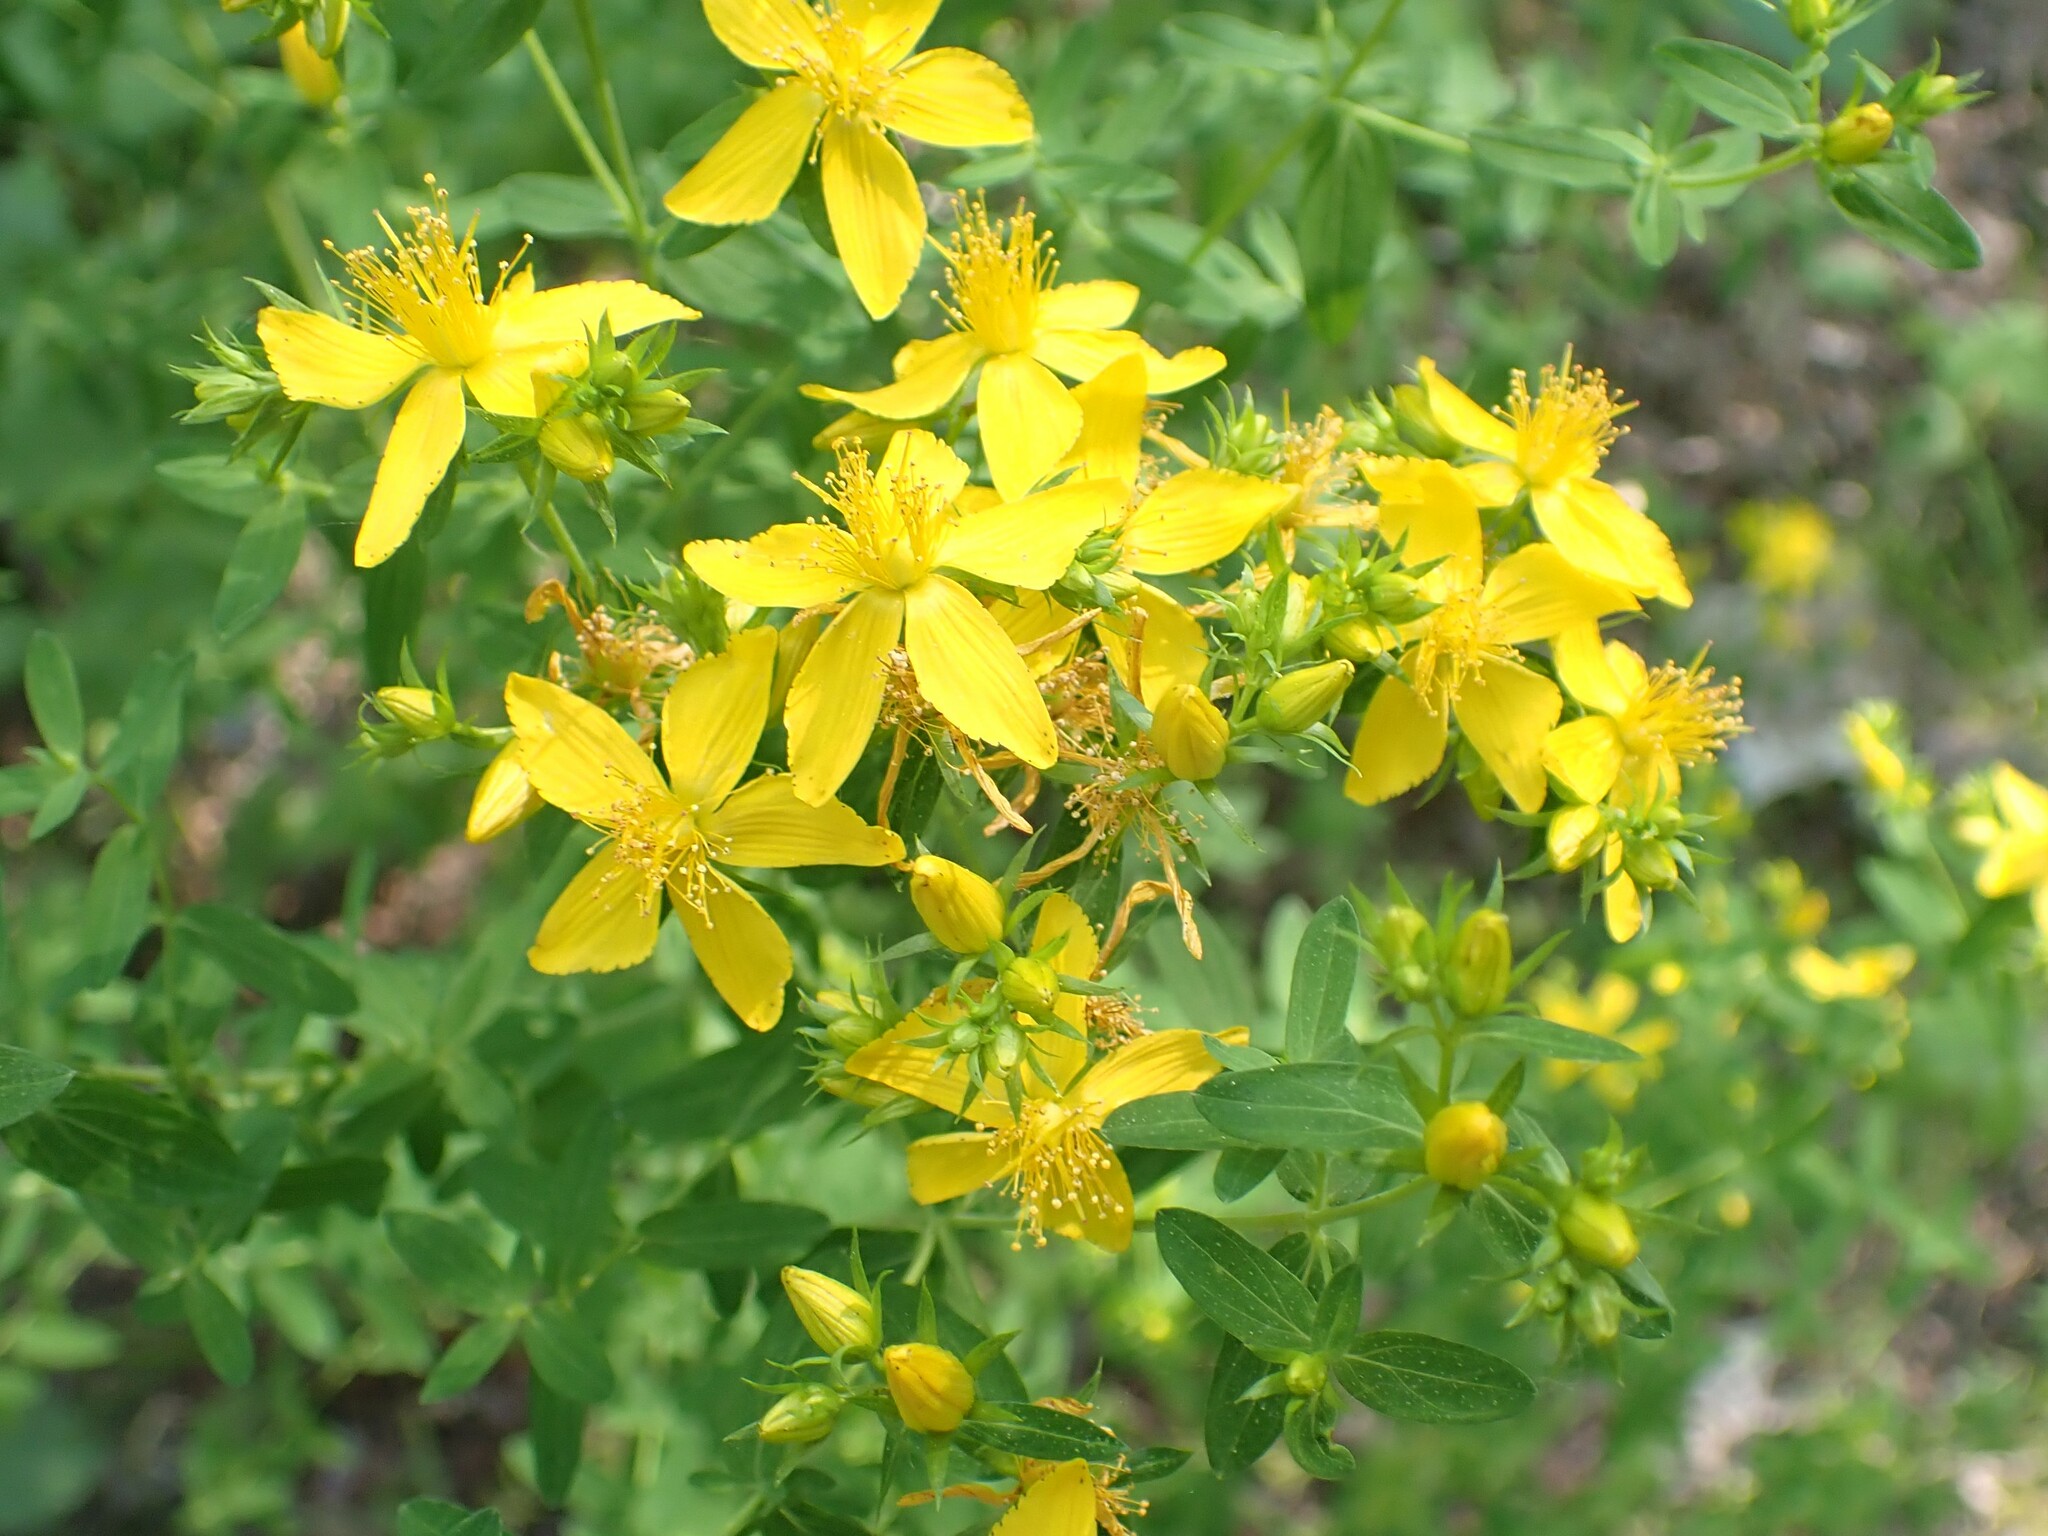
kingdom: Plantae
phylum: Tracheophyta
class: Magnoliopsida
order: Malpighiales
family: Hypericaceae
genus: Hypericum
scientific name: Hypericum perforatum
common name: Common st. johnswort
